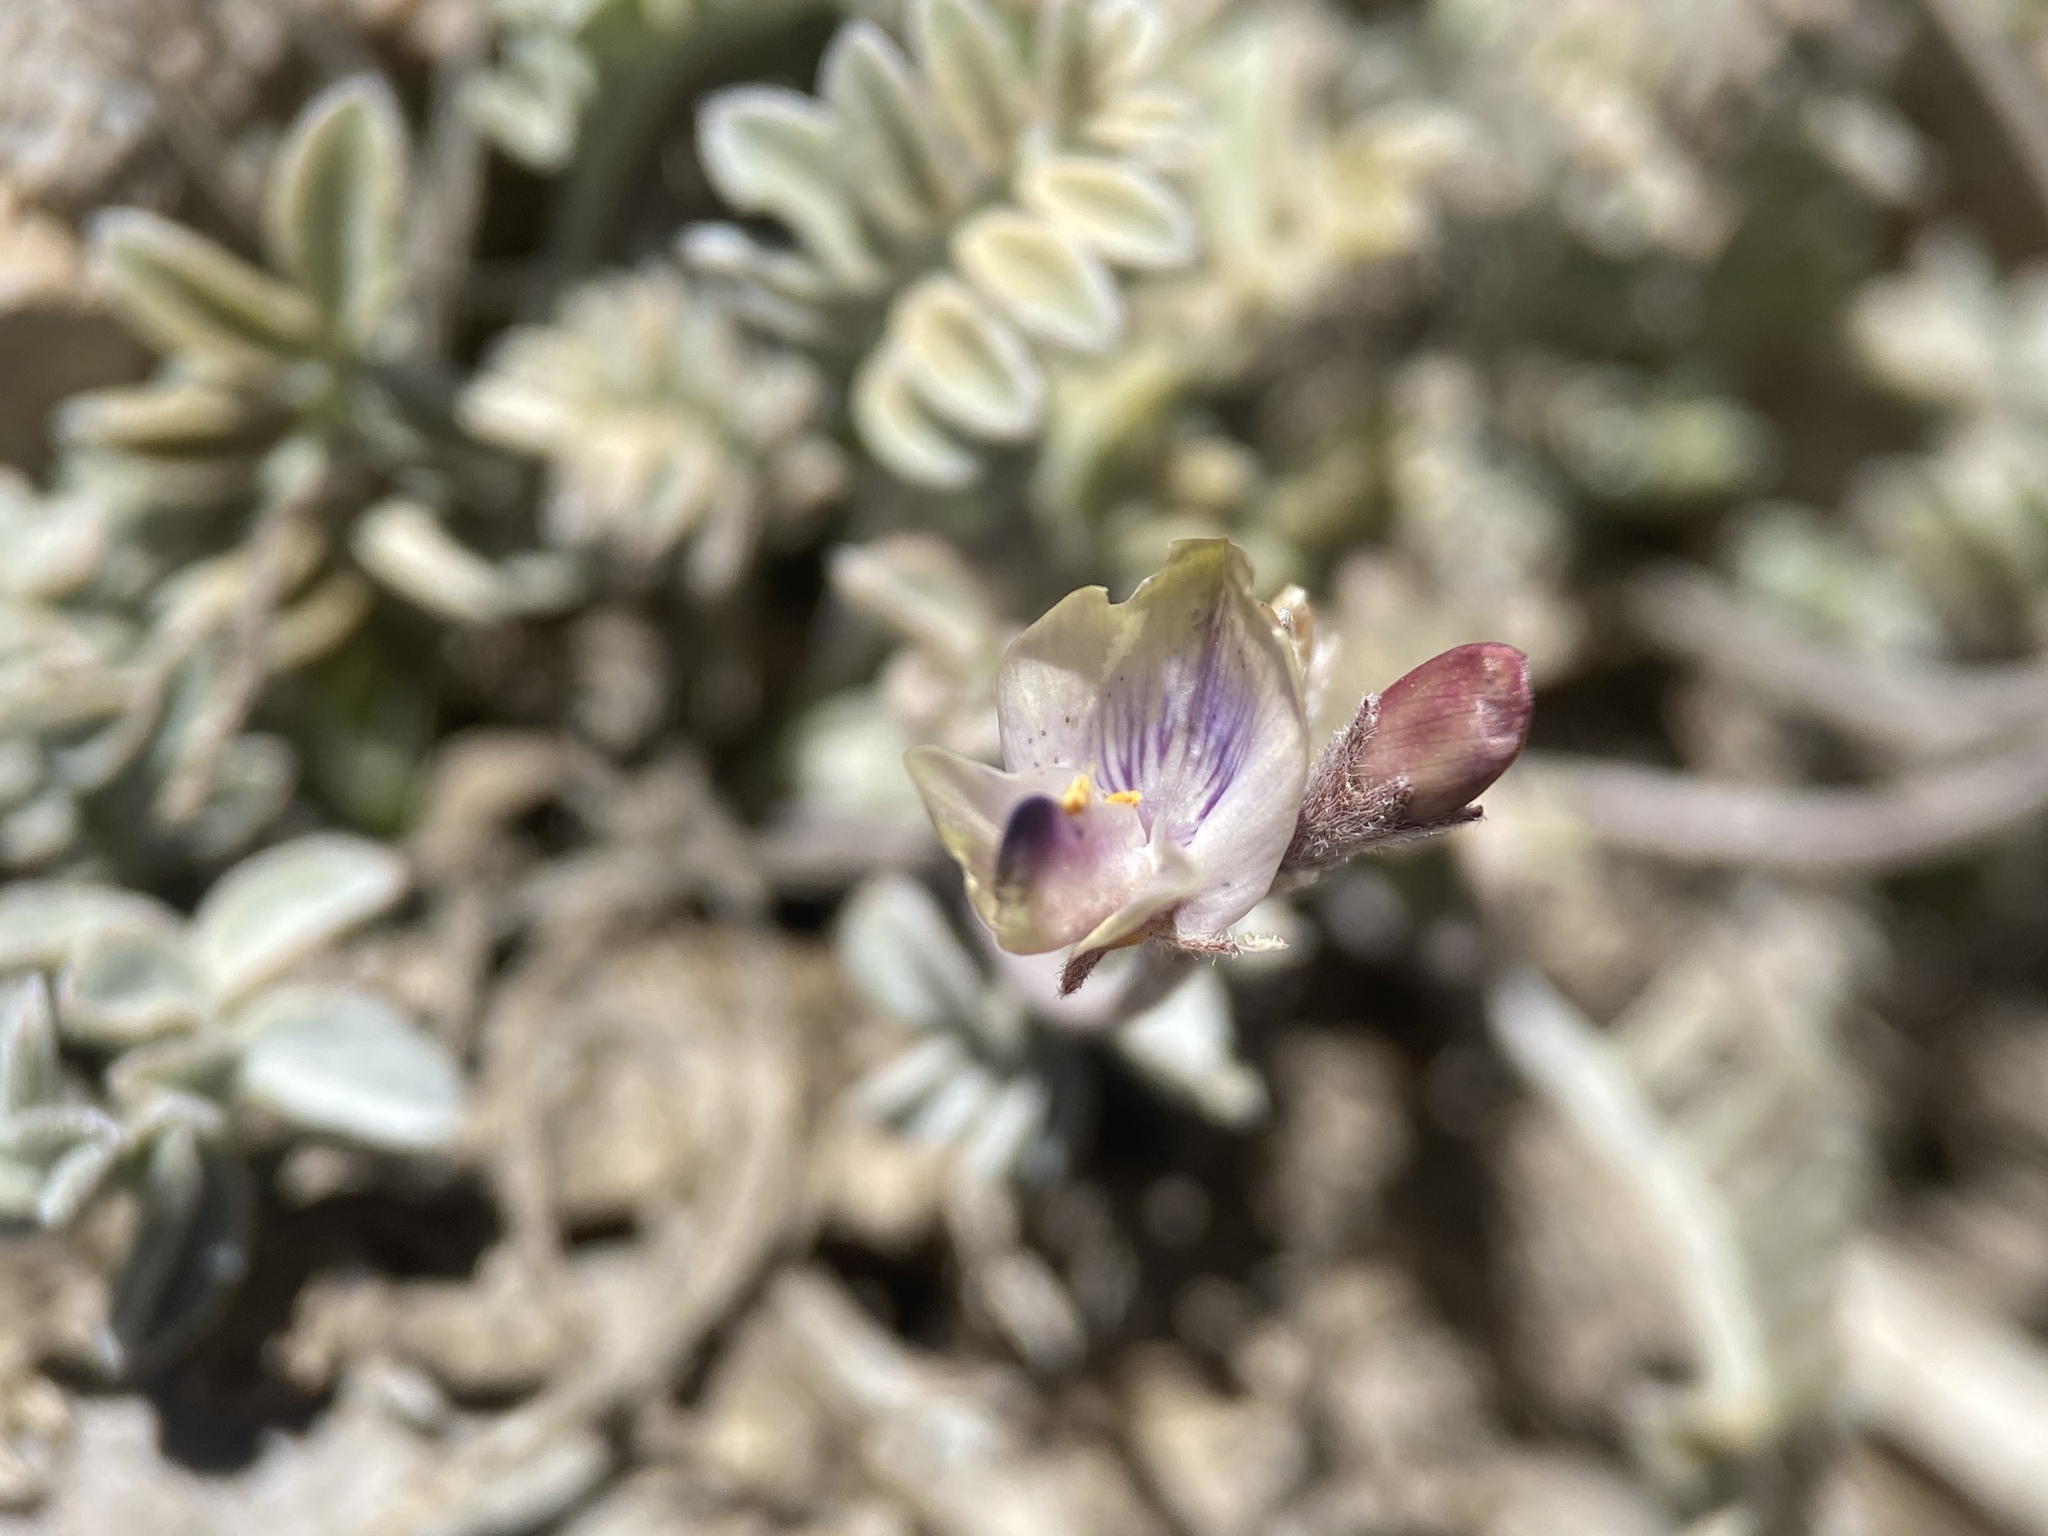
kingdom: Plantae
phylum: Tracheophyta
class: Magnoliopsida
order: Fabales
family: Fabaceae
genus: Astragalus
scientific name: Astragalus platytropis
